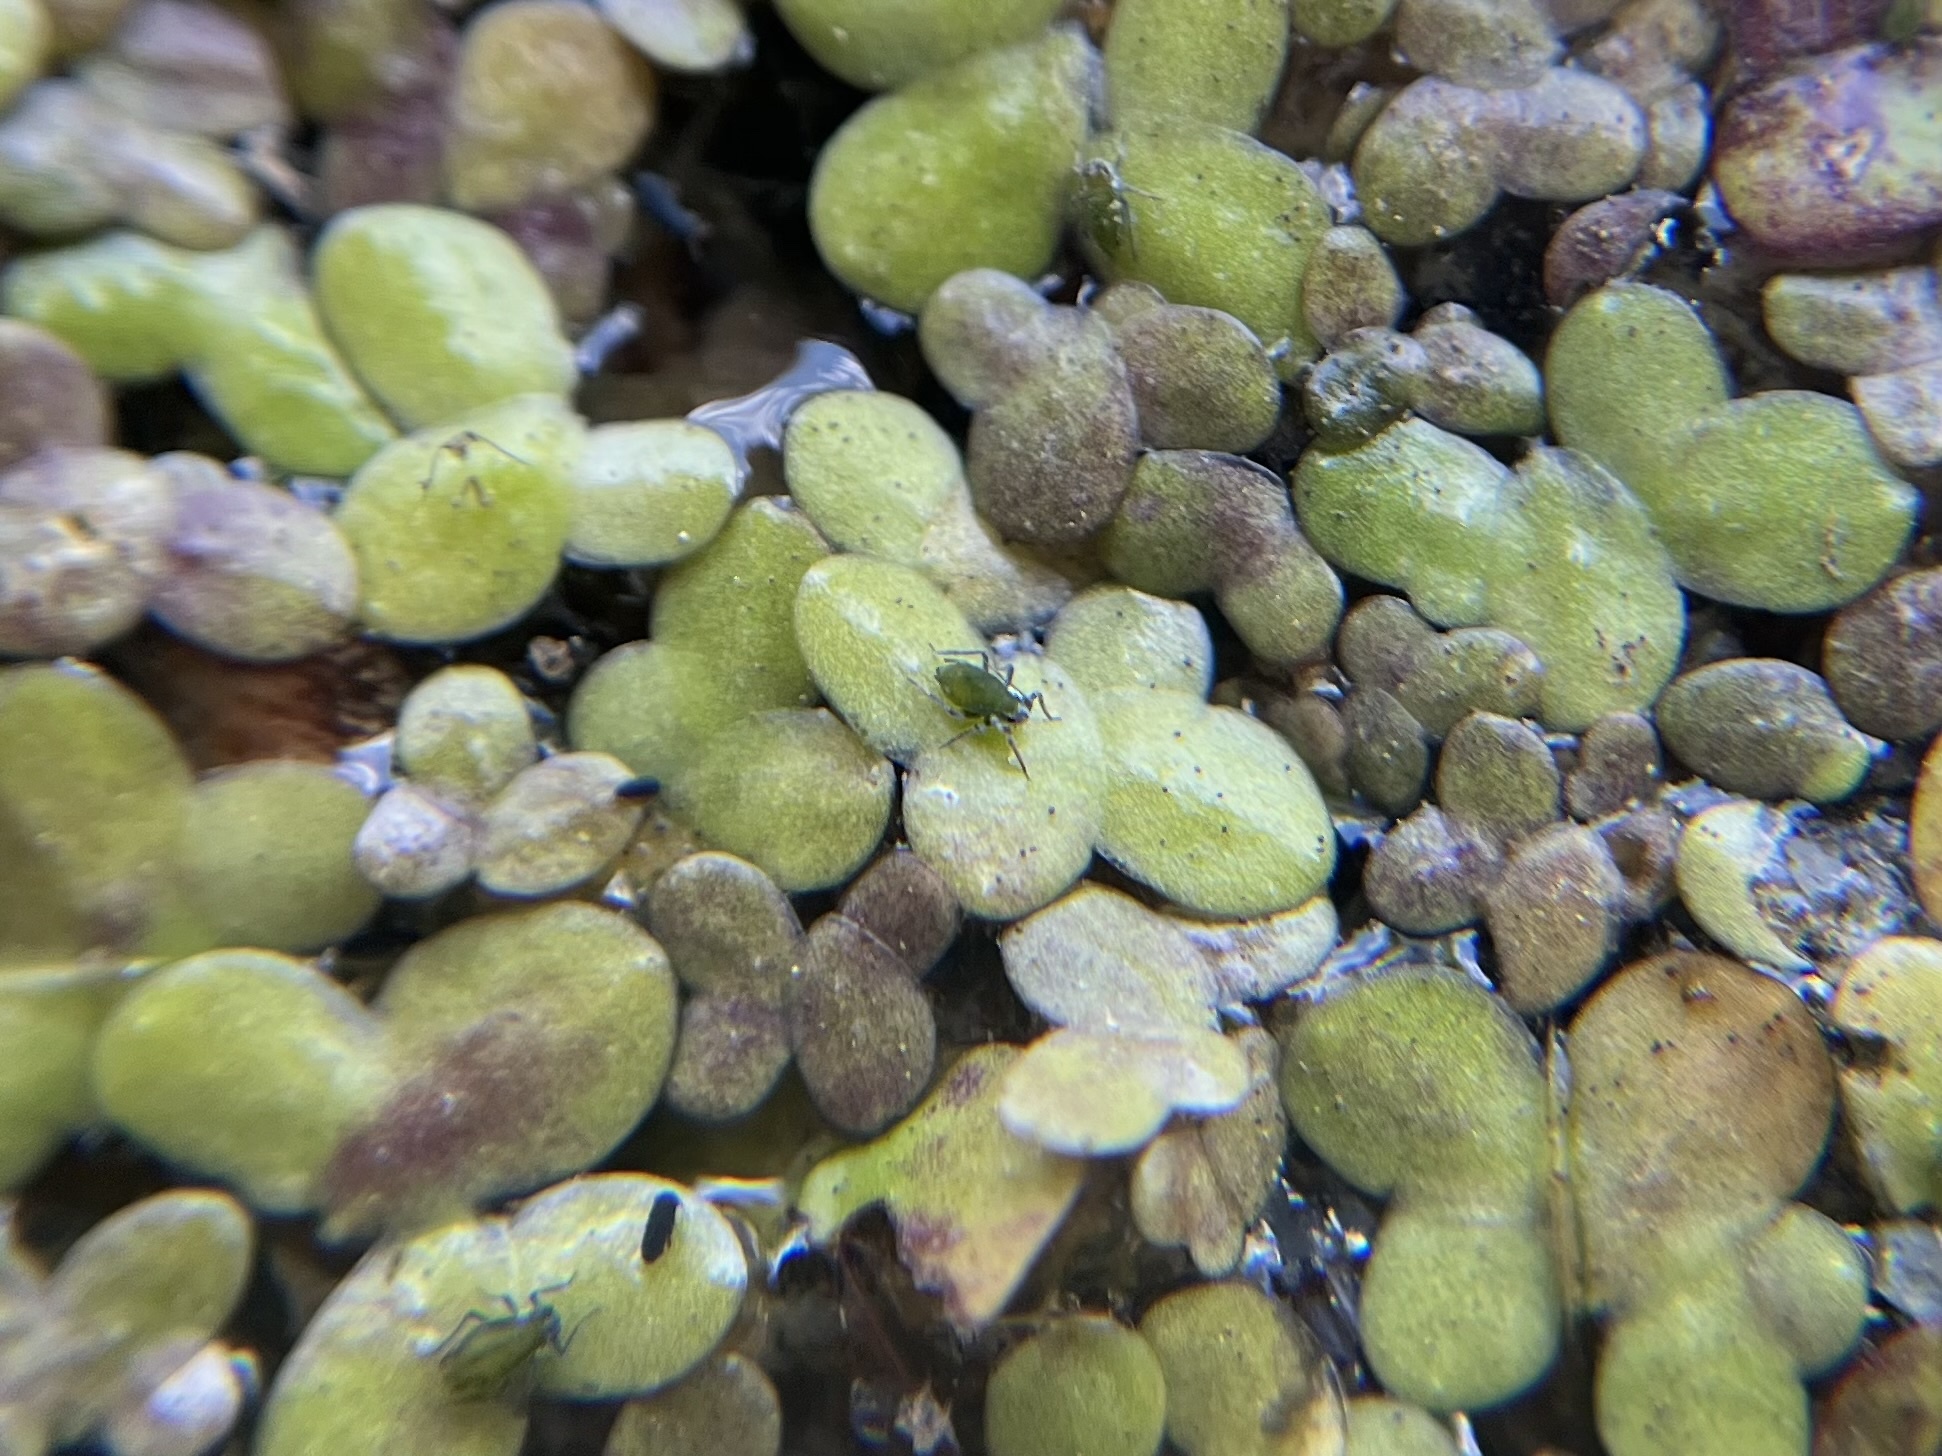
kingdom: Plantae
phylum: Tracheophyta
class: Liliopsida
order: Alismatales
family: Araceae
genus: Lemna
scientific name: Lemna turionifera
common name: Perennial duckweed
